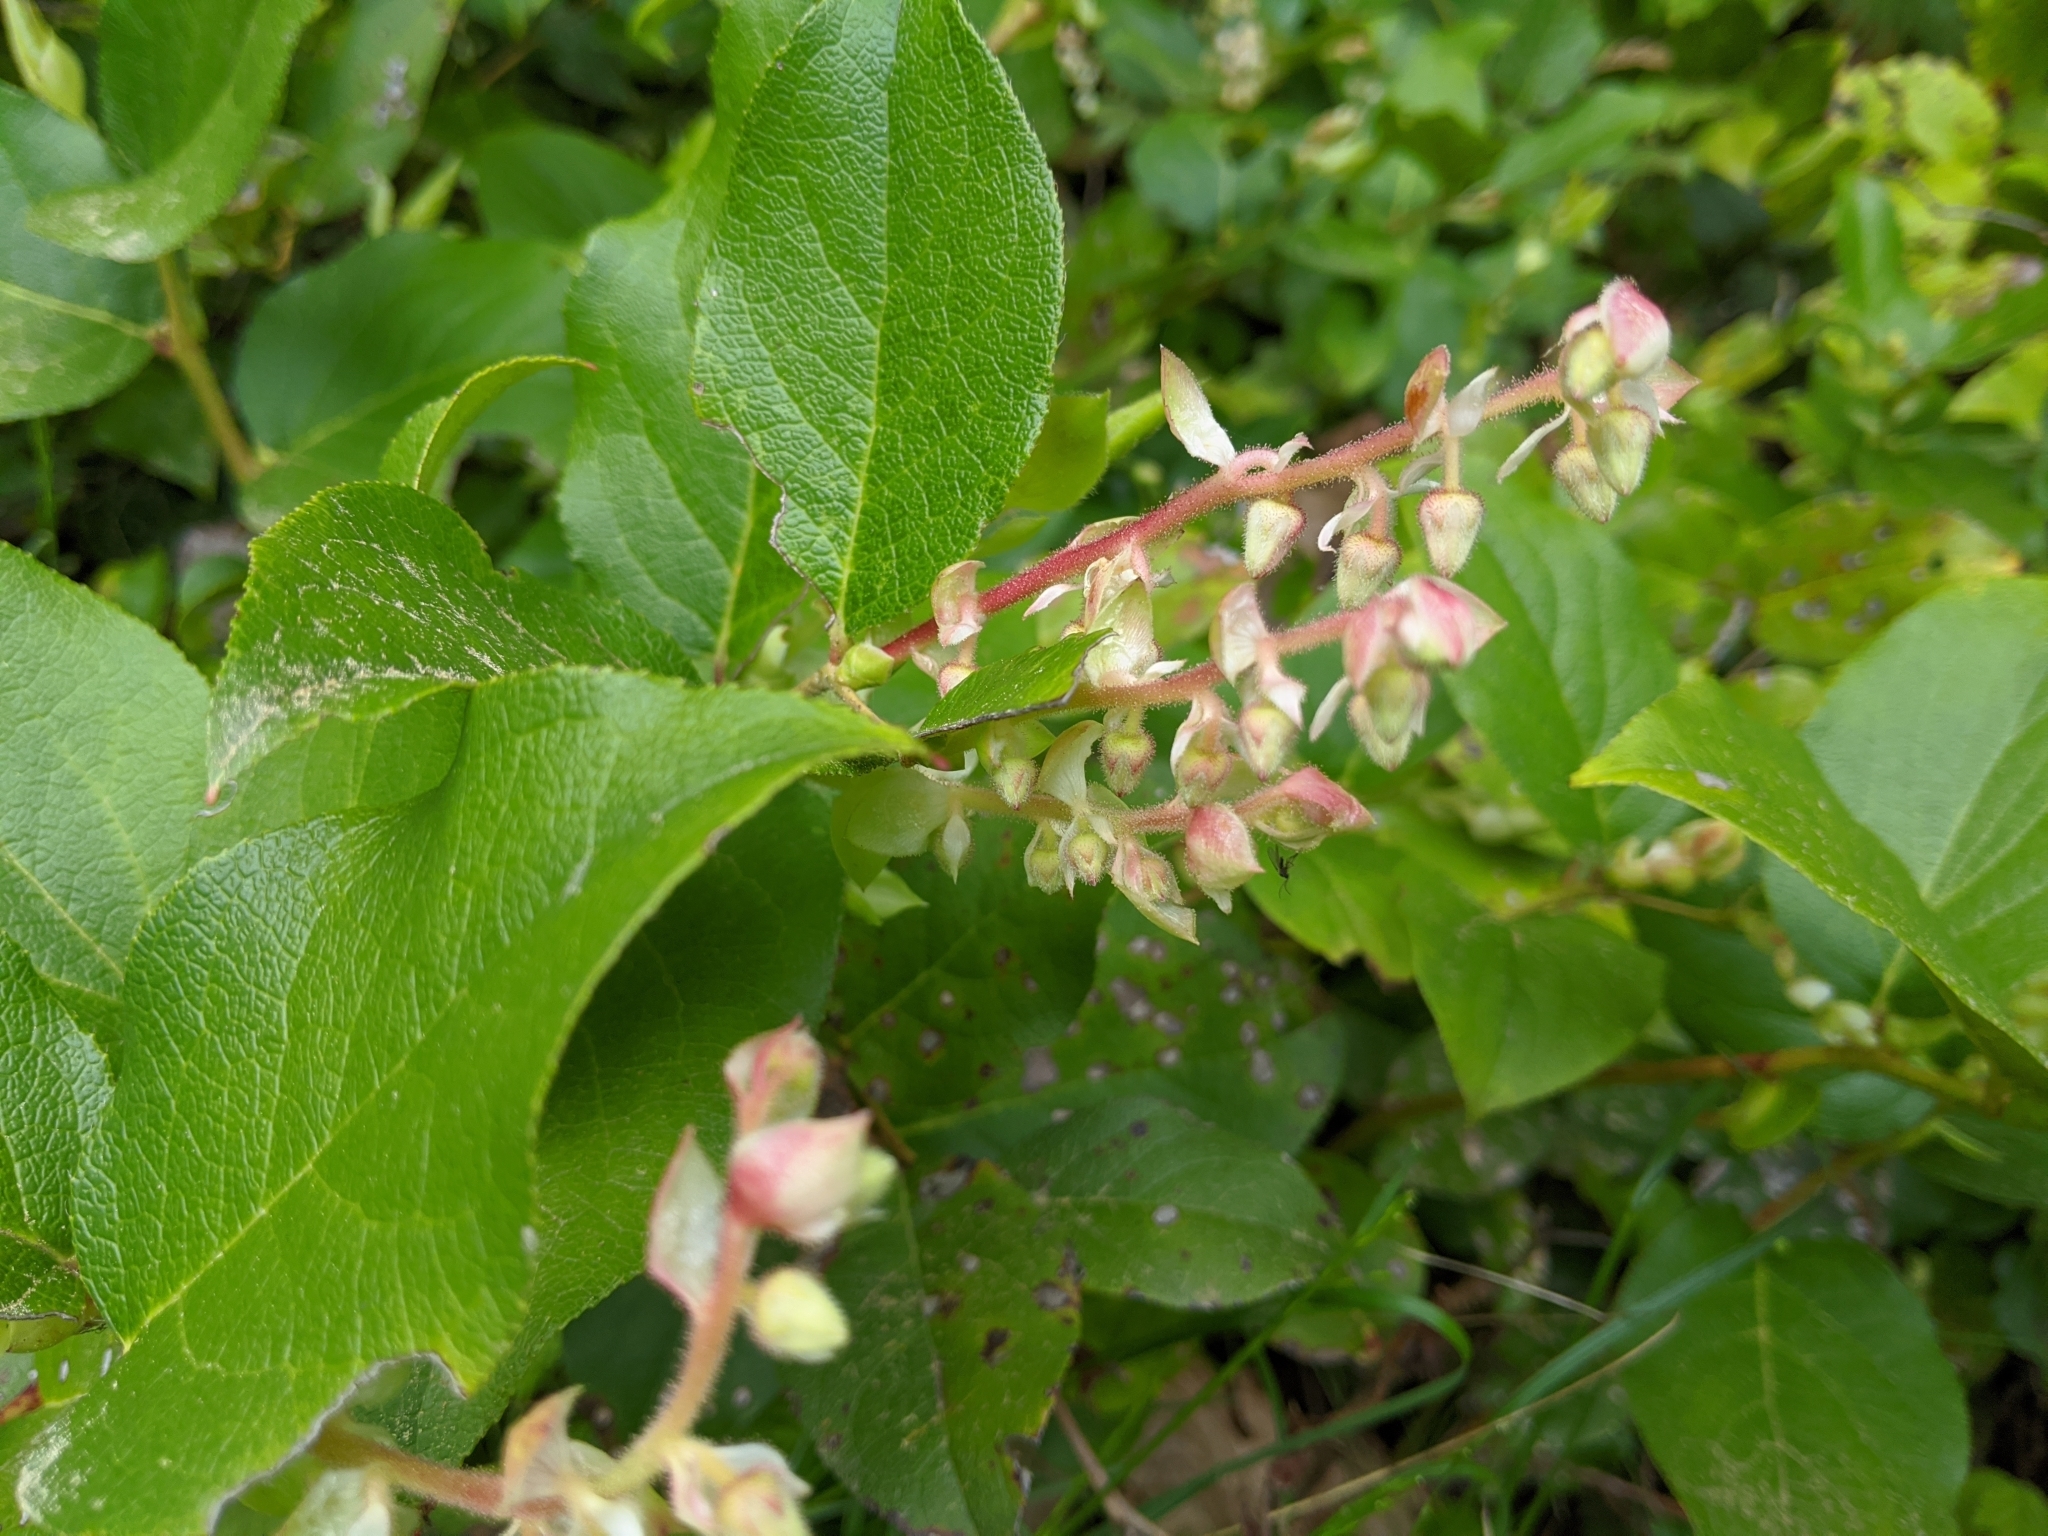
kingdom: Plantae
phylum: Tracheophyta
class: Magnoliopsida
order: Ericales
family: Ericaceae
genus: Gaultheria
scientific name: Gaultheria shallon
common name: Shallon
